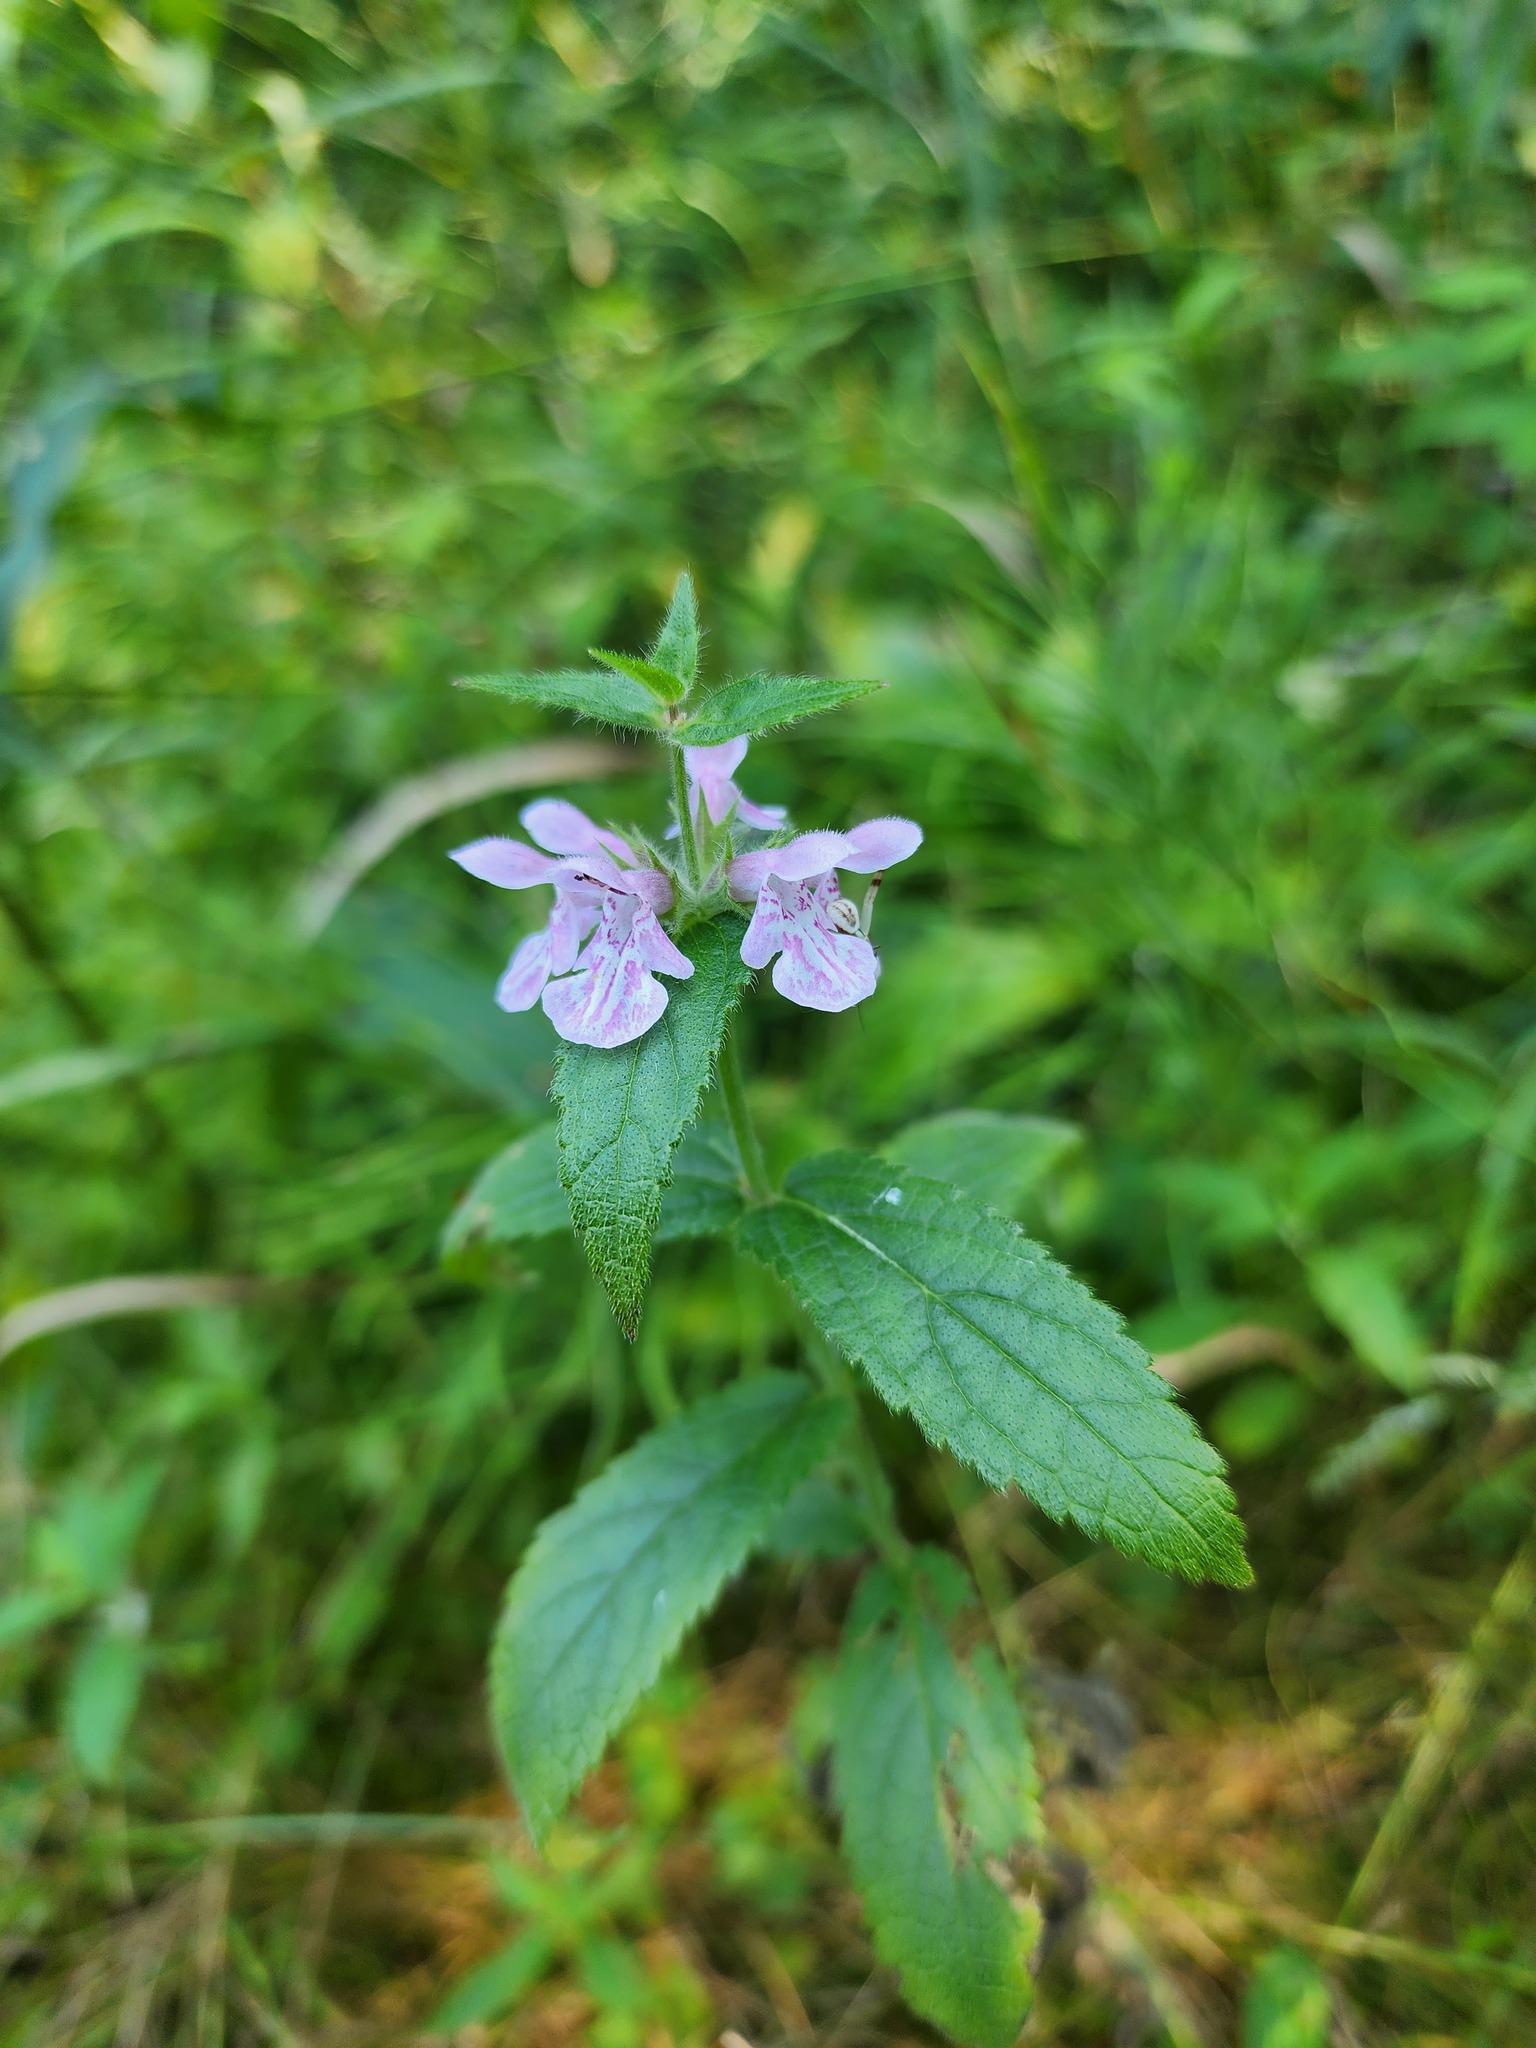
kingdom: Plantae
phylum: Tracheophyta
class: Magnoliopsida
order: Lamiales
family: Lamiaceae
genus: Stachys
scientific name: Stachys pilosa
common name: Hairy hedge-nettle
